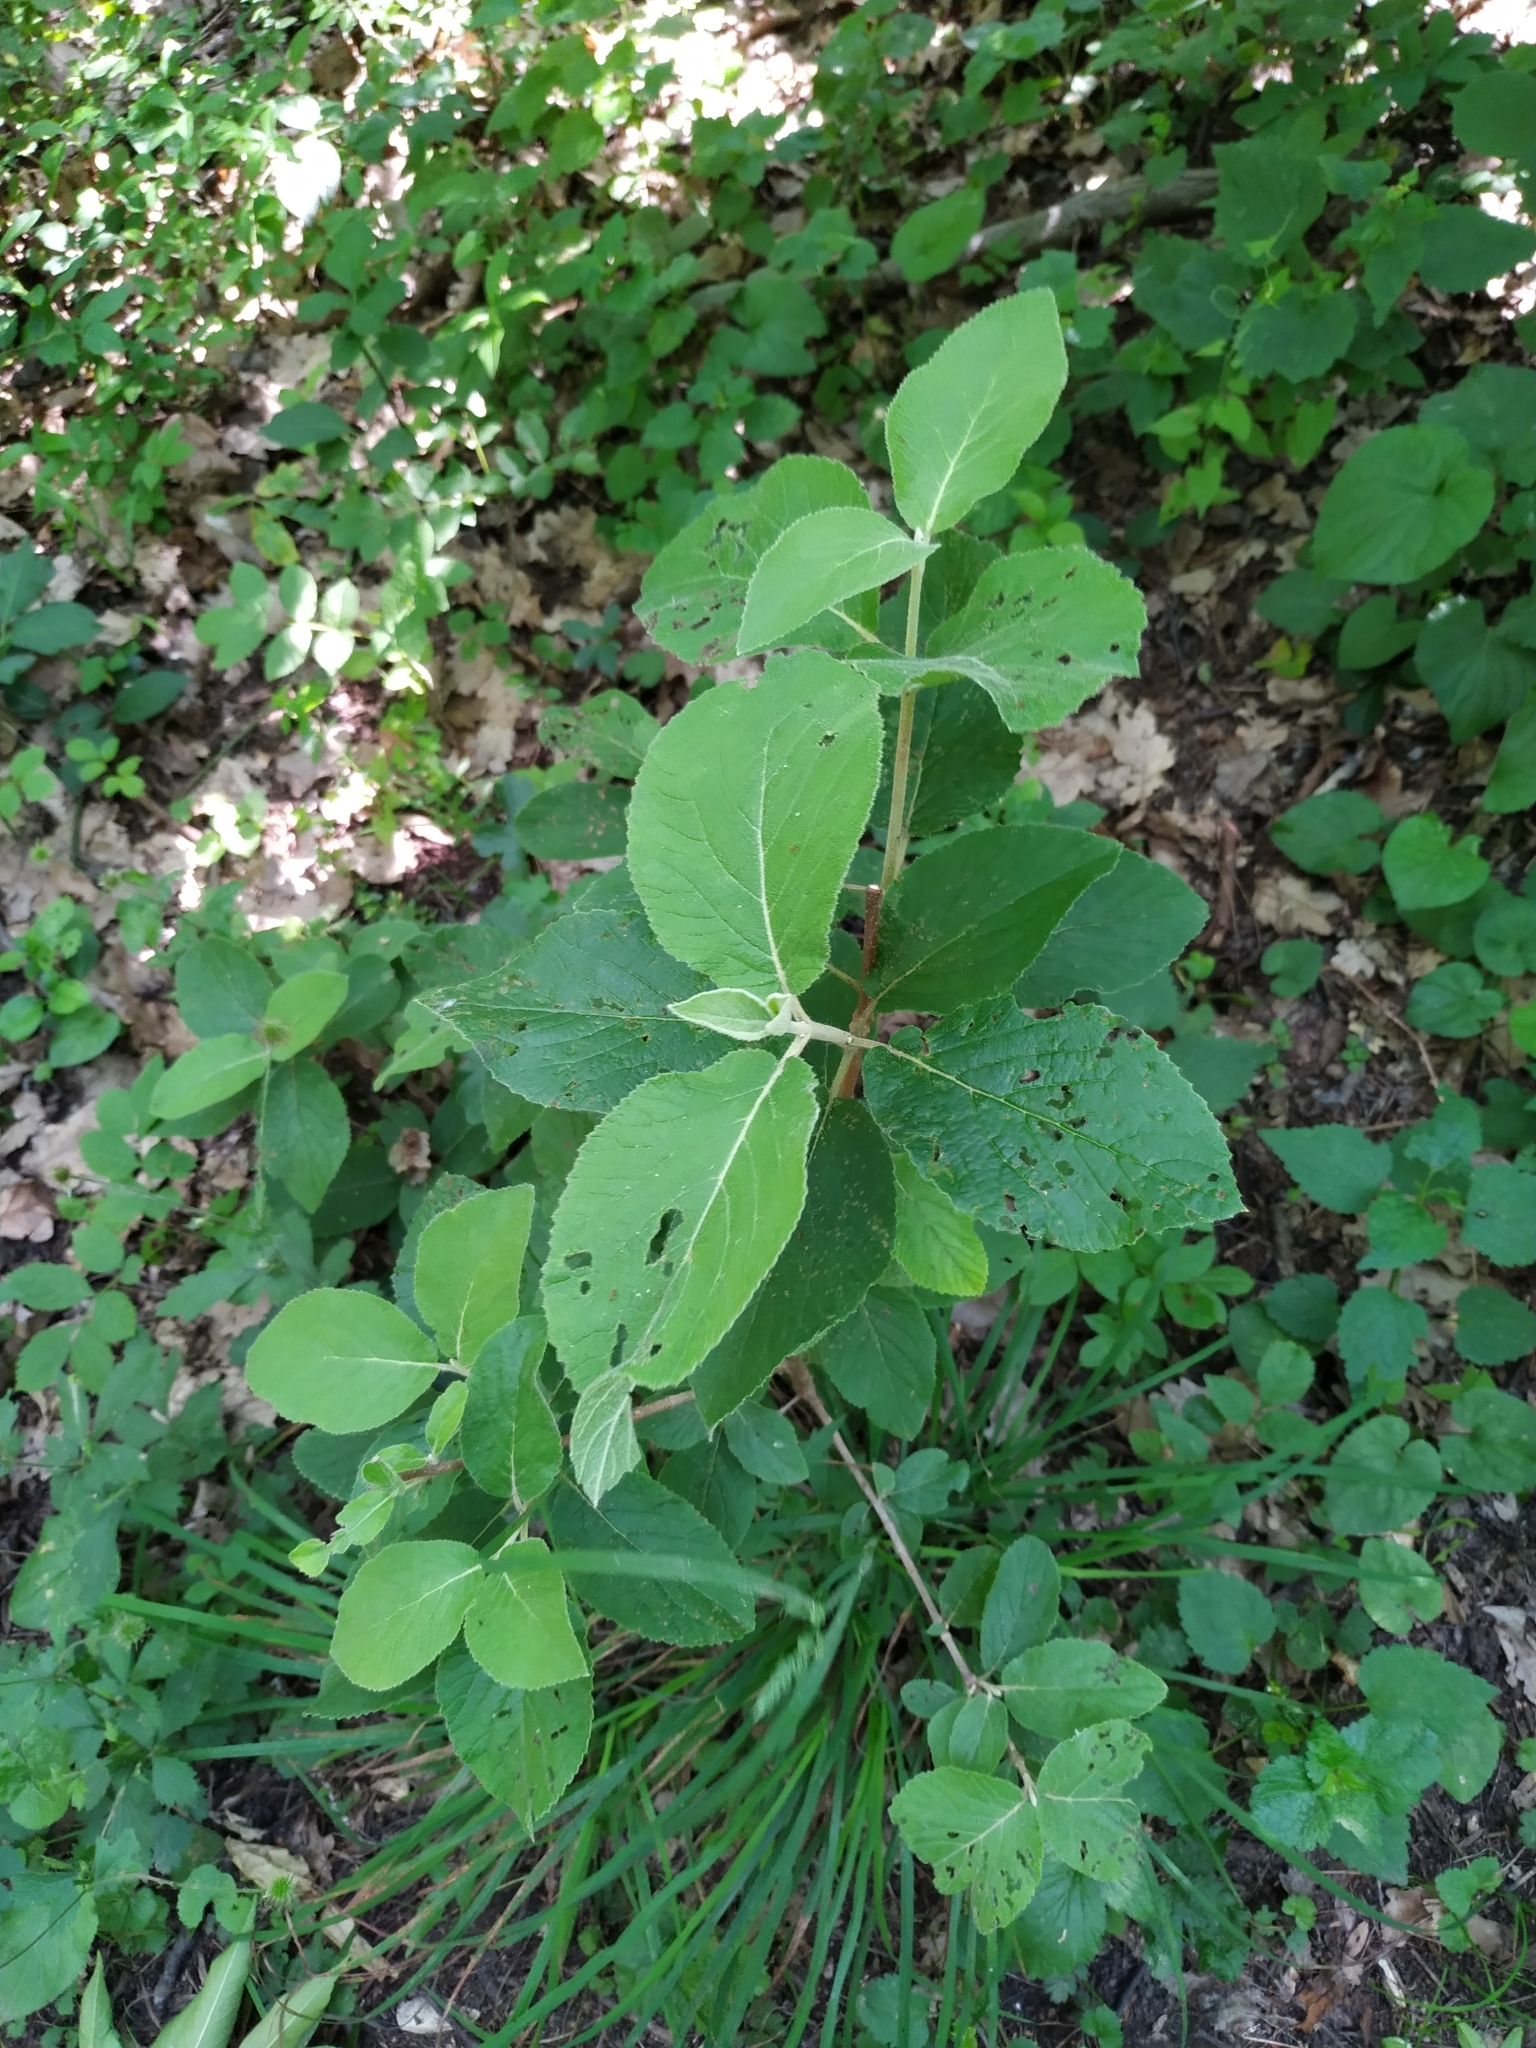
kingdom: Plantae
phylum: Tracheophyta
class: Magnoliopsida
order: Dipsacales
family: Viburnaceae
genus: Viburnum
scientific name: Viburnum lantana
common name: Wayfaring tree
